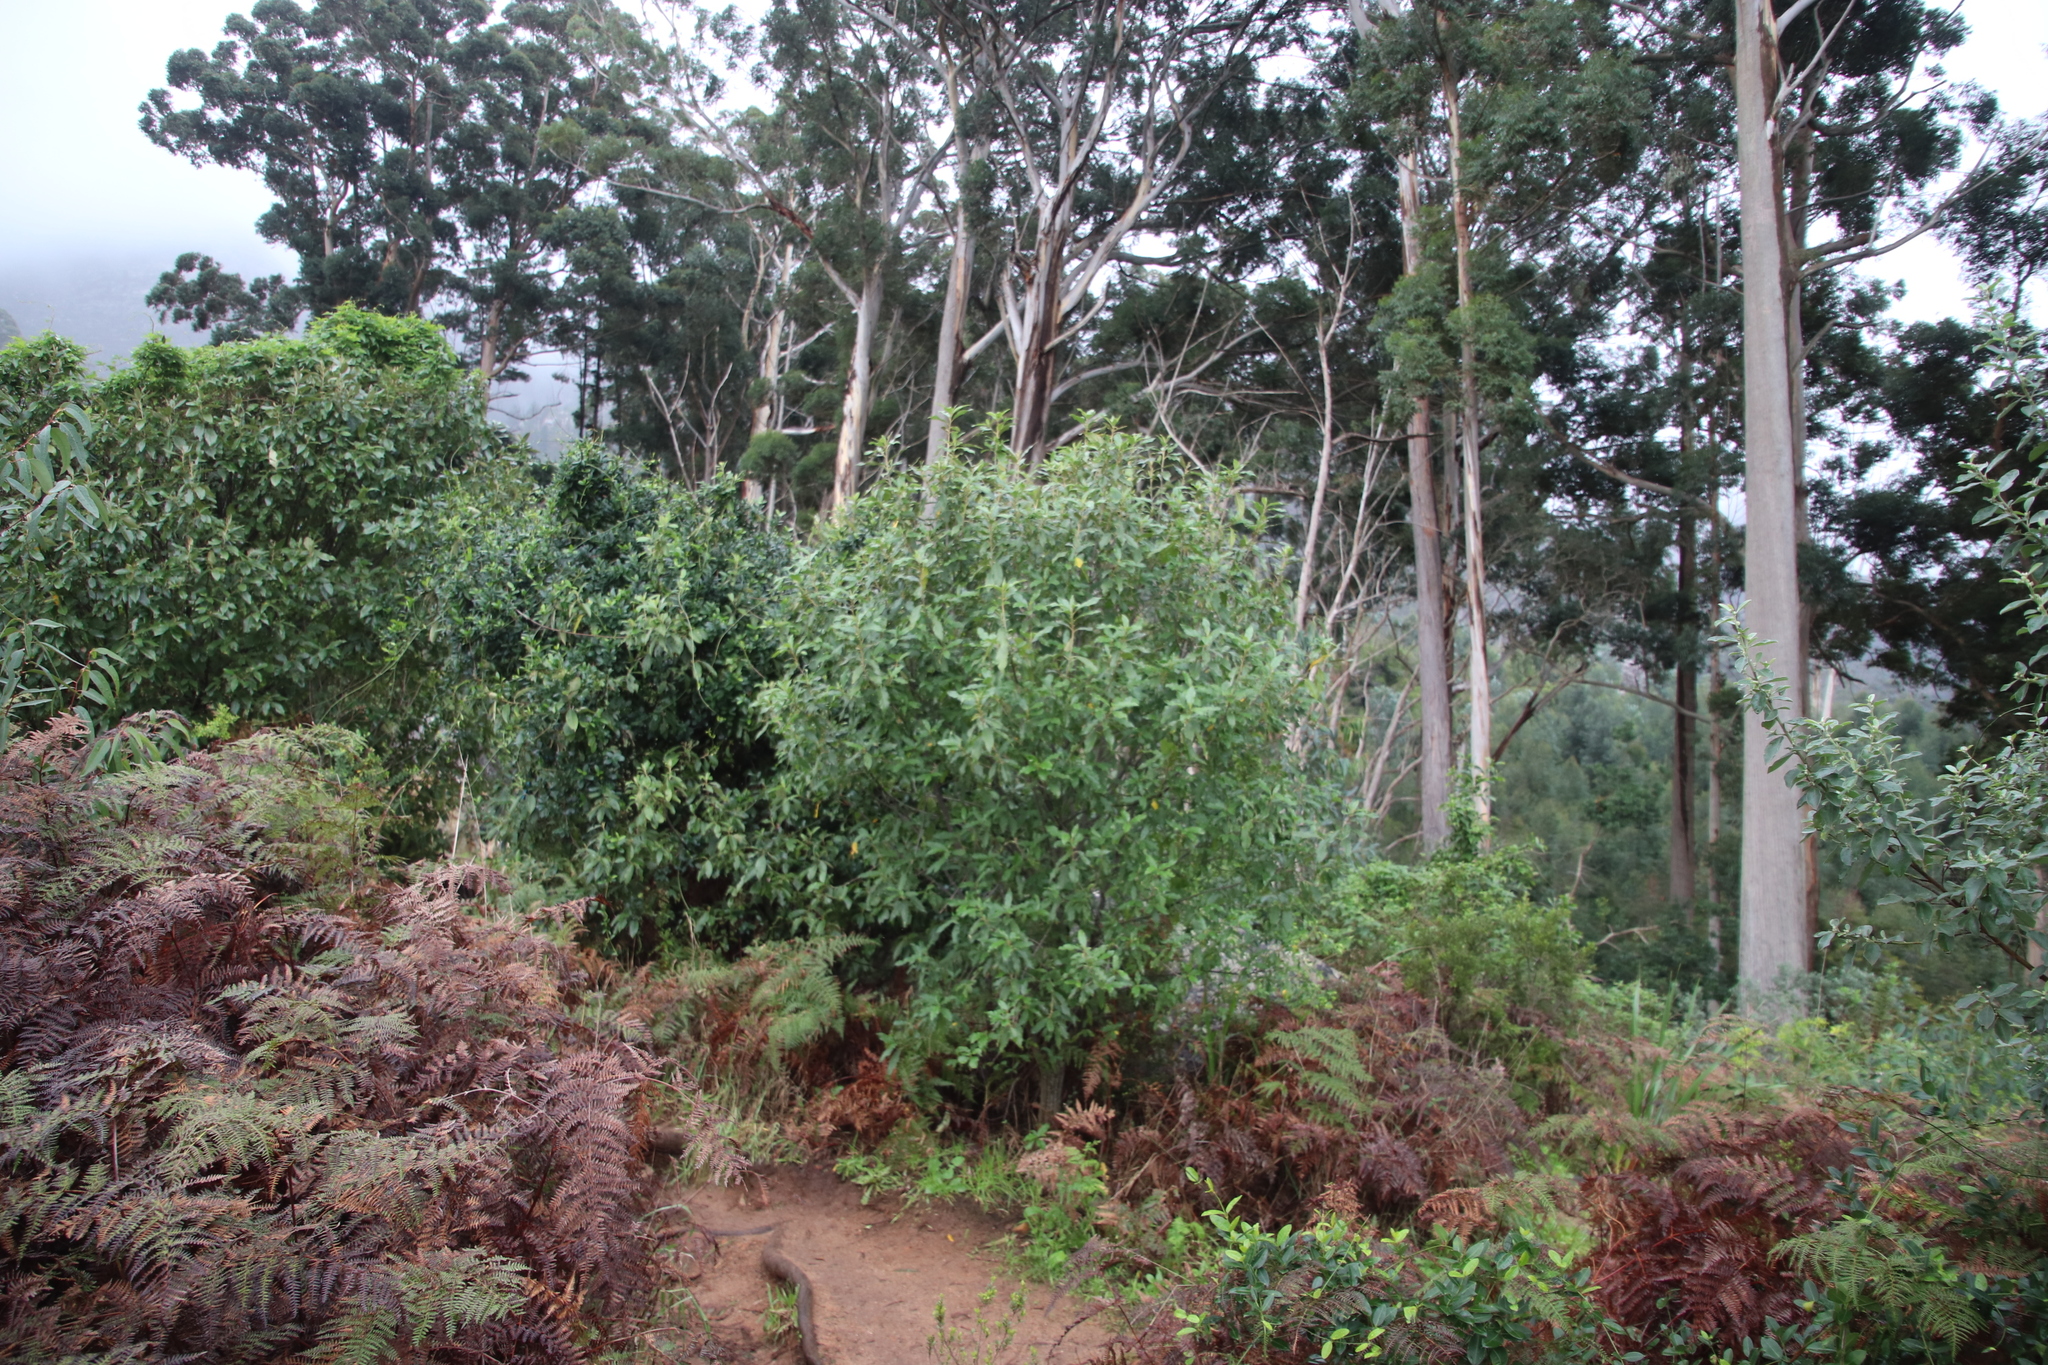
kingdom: Plantae
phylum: Tracheophyta
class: Magnoliopsida
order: Malpighiales
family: Achariaceae
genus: Kiggelaria
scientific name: Kiggelaria africana
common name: Wild peach
